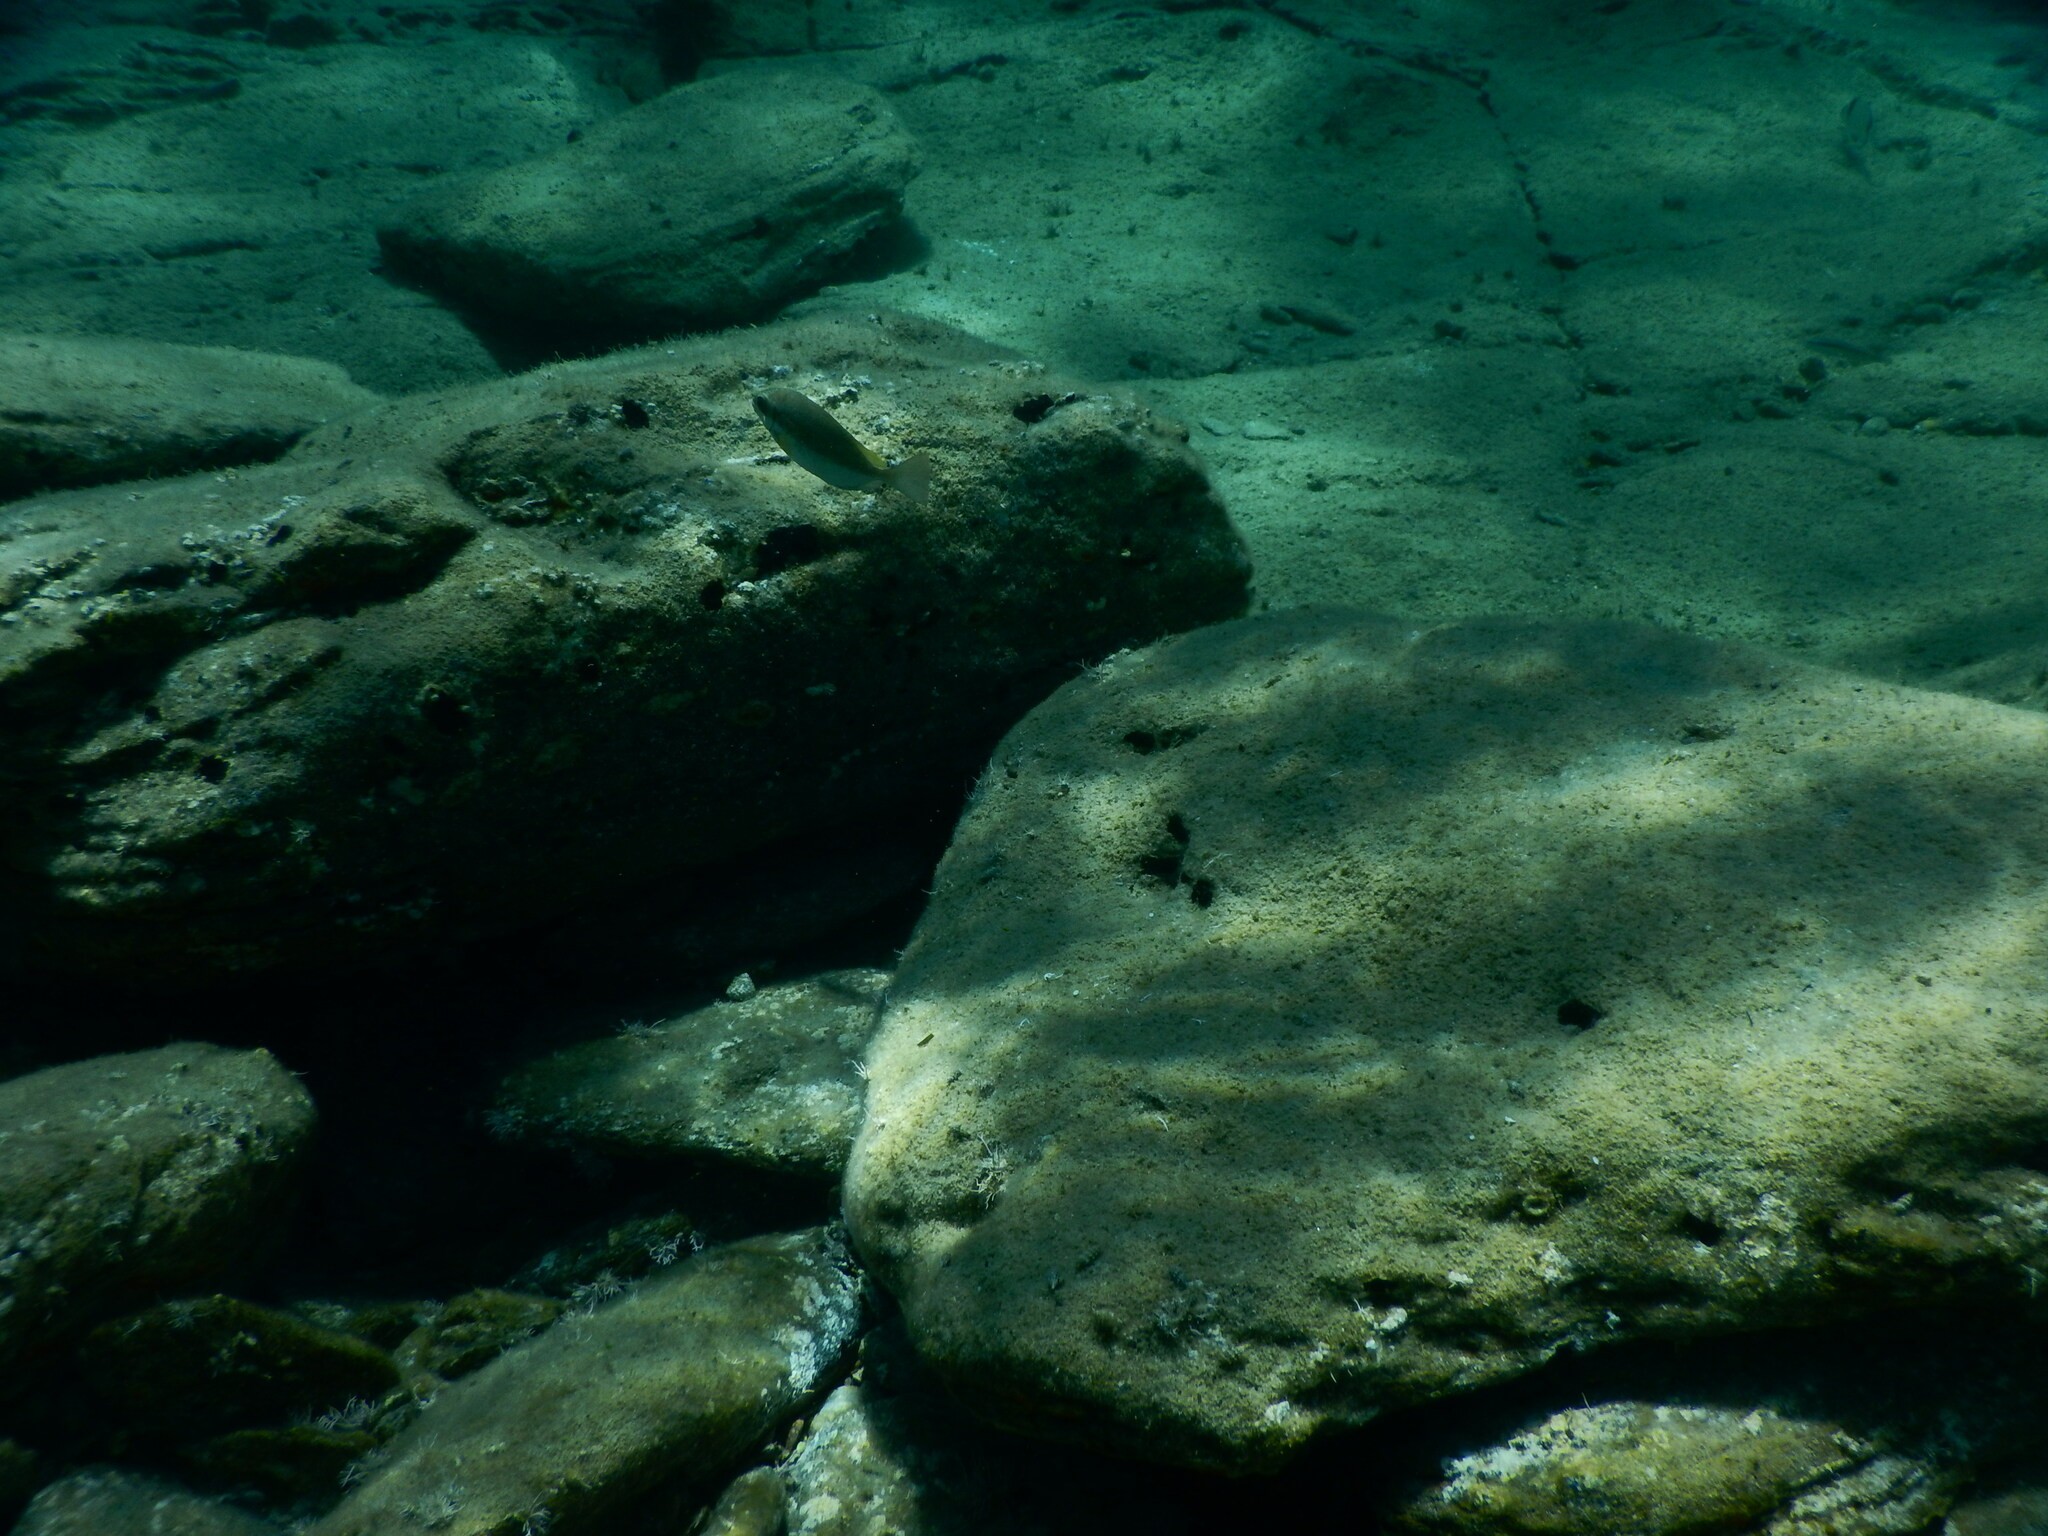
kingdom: Animalia
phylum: Chordata
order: Perciformes
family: Siganidae
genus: Siganus
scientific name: Siganus luridus
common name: Dusky spinefoot
